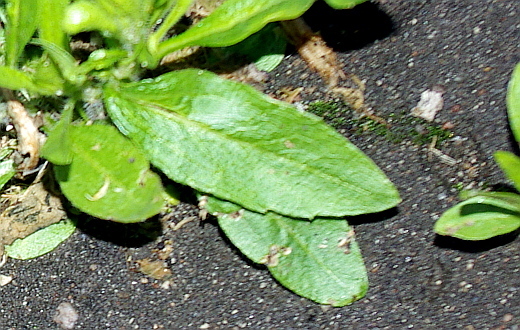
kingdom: Plantae
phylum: Tracheophyta
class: Magnoliopsida
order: Asterales
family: Asteraceae
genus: Erigeron
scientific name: Erigeron canadensis
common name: Canadian fleabane
